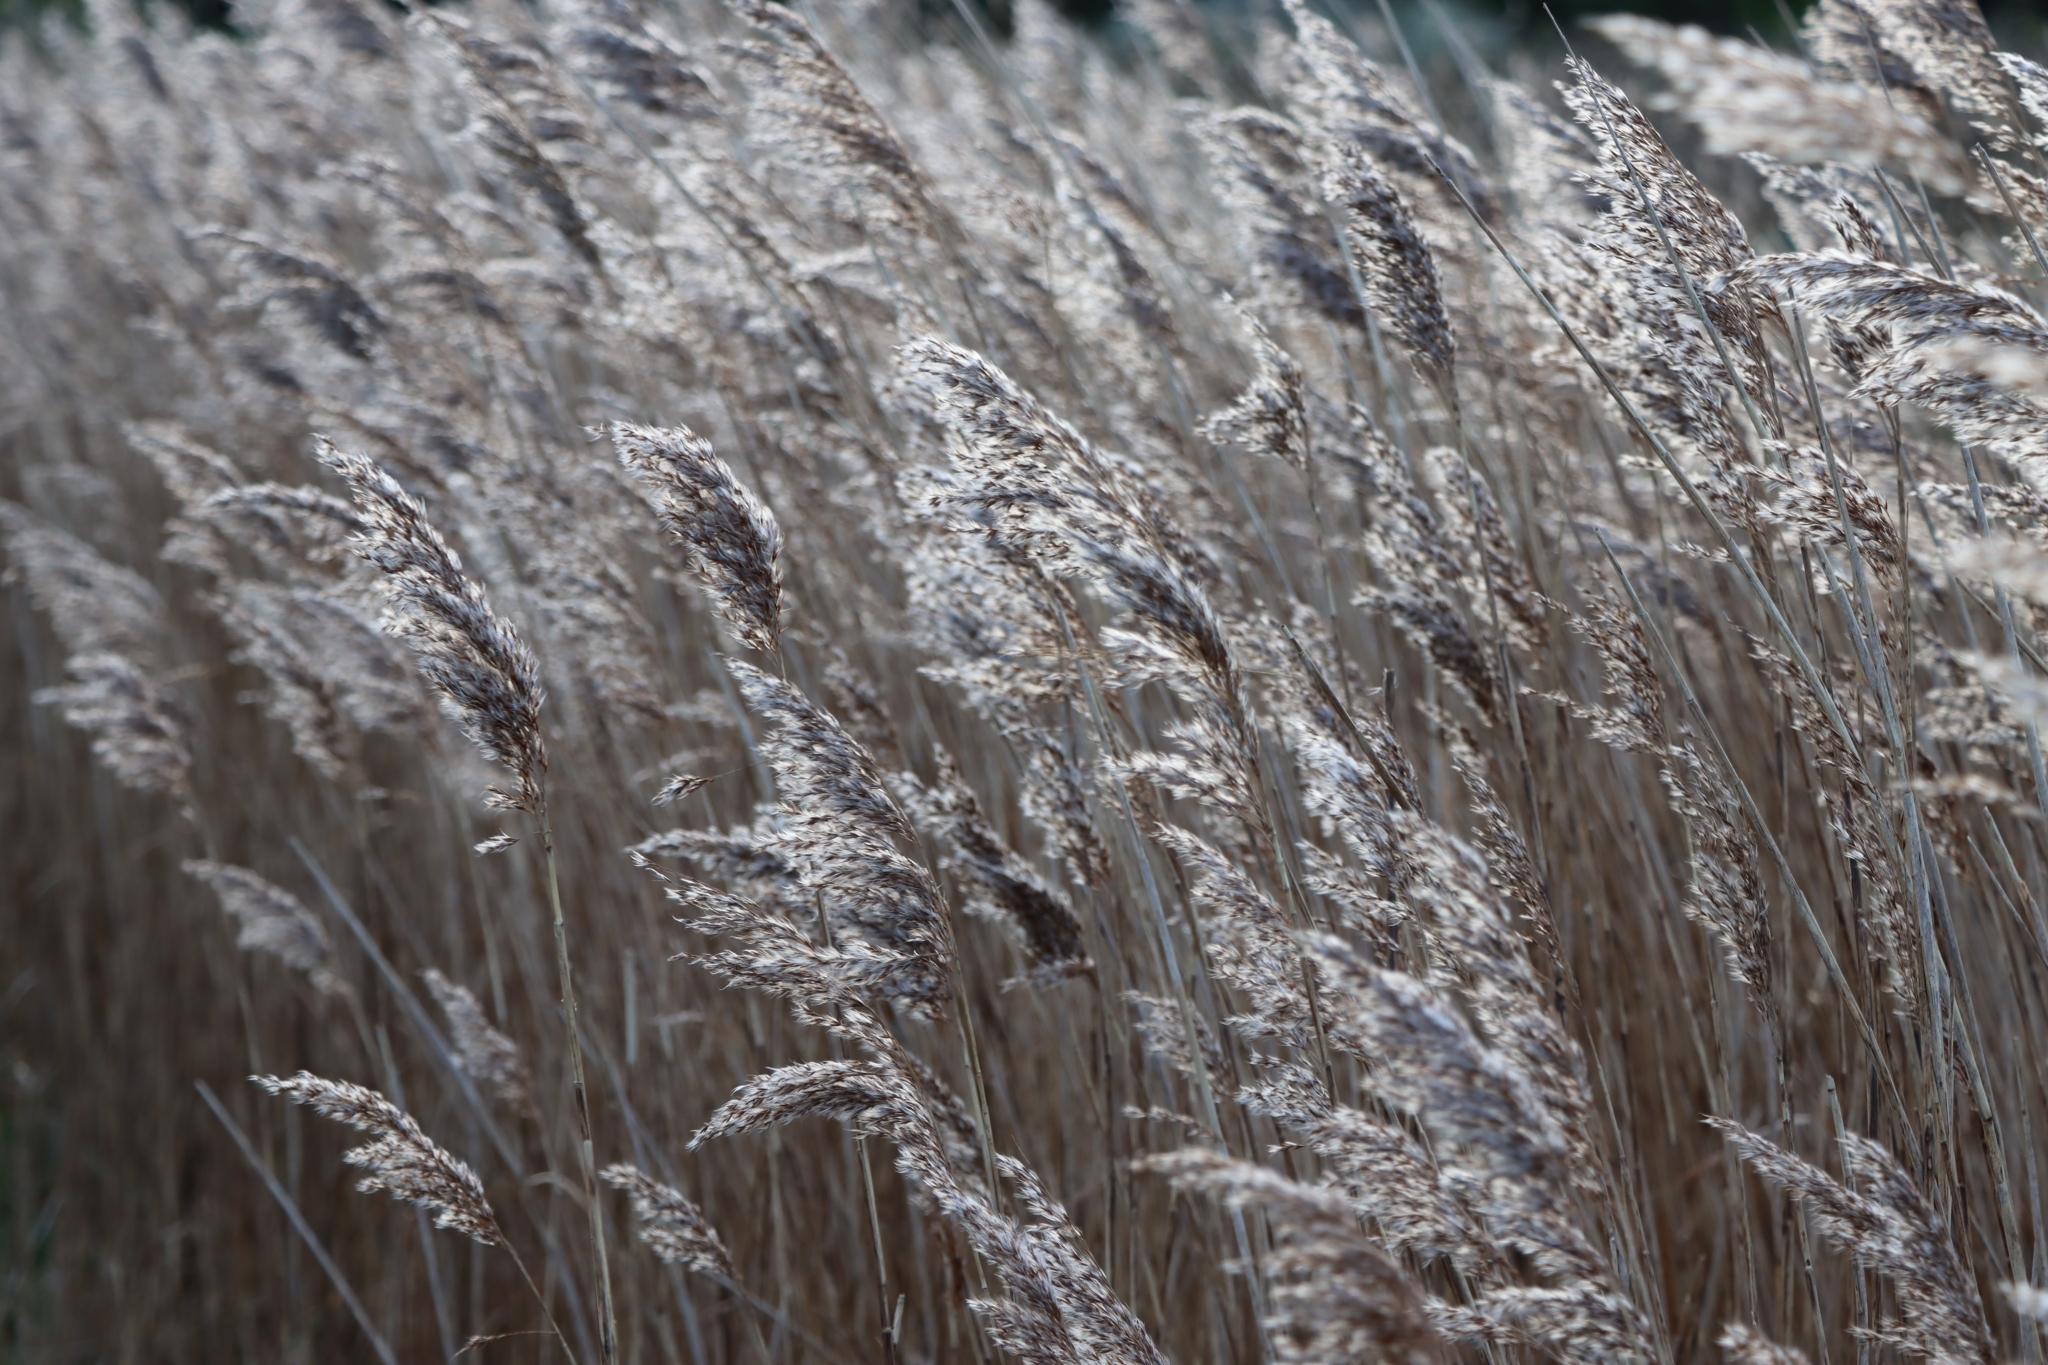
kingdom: Plantae
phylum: Tracheophyta
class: Liliopsida
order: Poales
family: Poaceae
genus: Phragmites
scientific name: Phragmites australis
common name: Common reed
